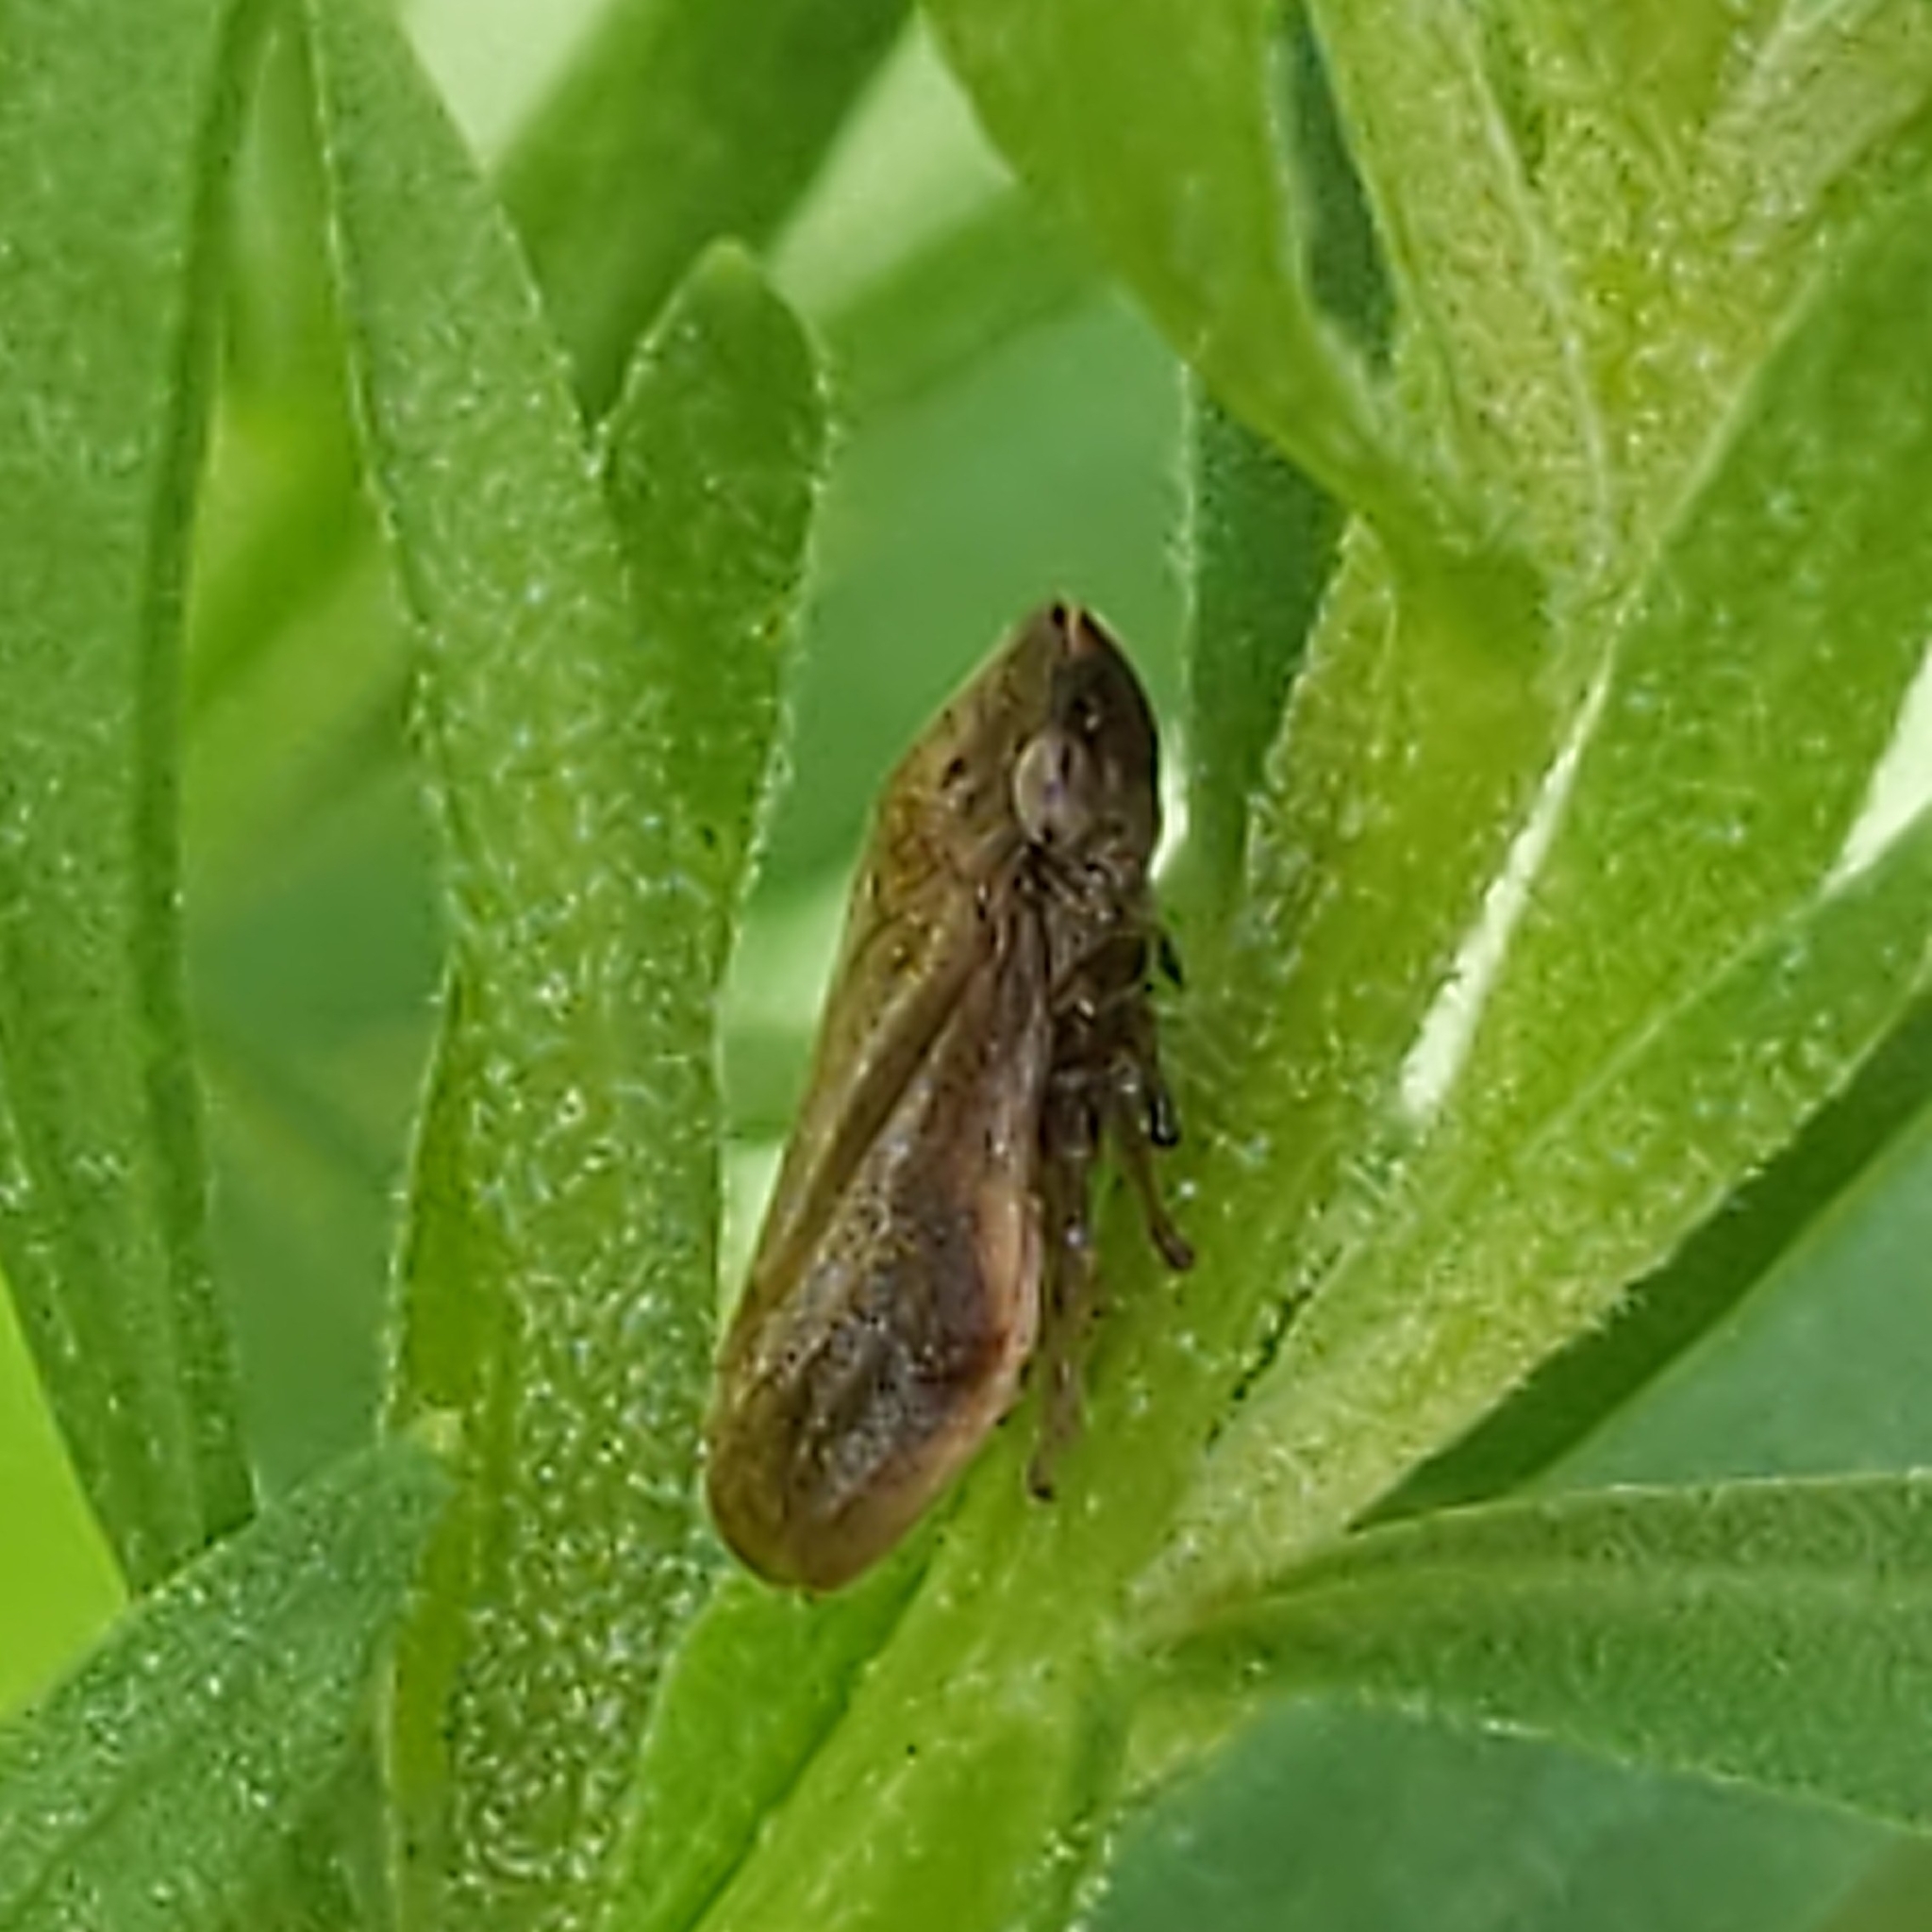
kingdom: Animalia
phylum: Arthropoda
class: Insecta
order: Hemiptera
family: Aphrophoridae
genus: Philaenus
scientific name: Philaenus spumarius
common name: Meadow spittlebug
